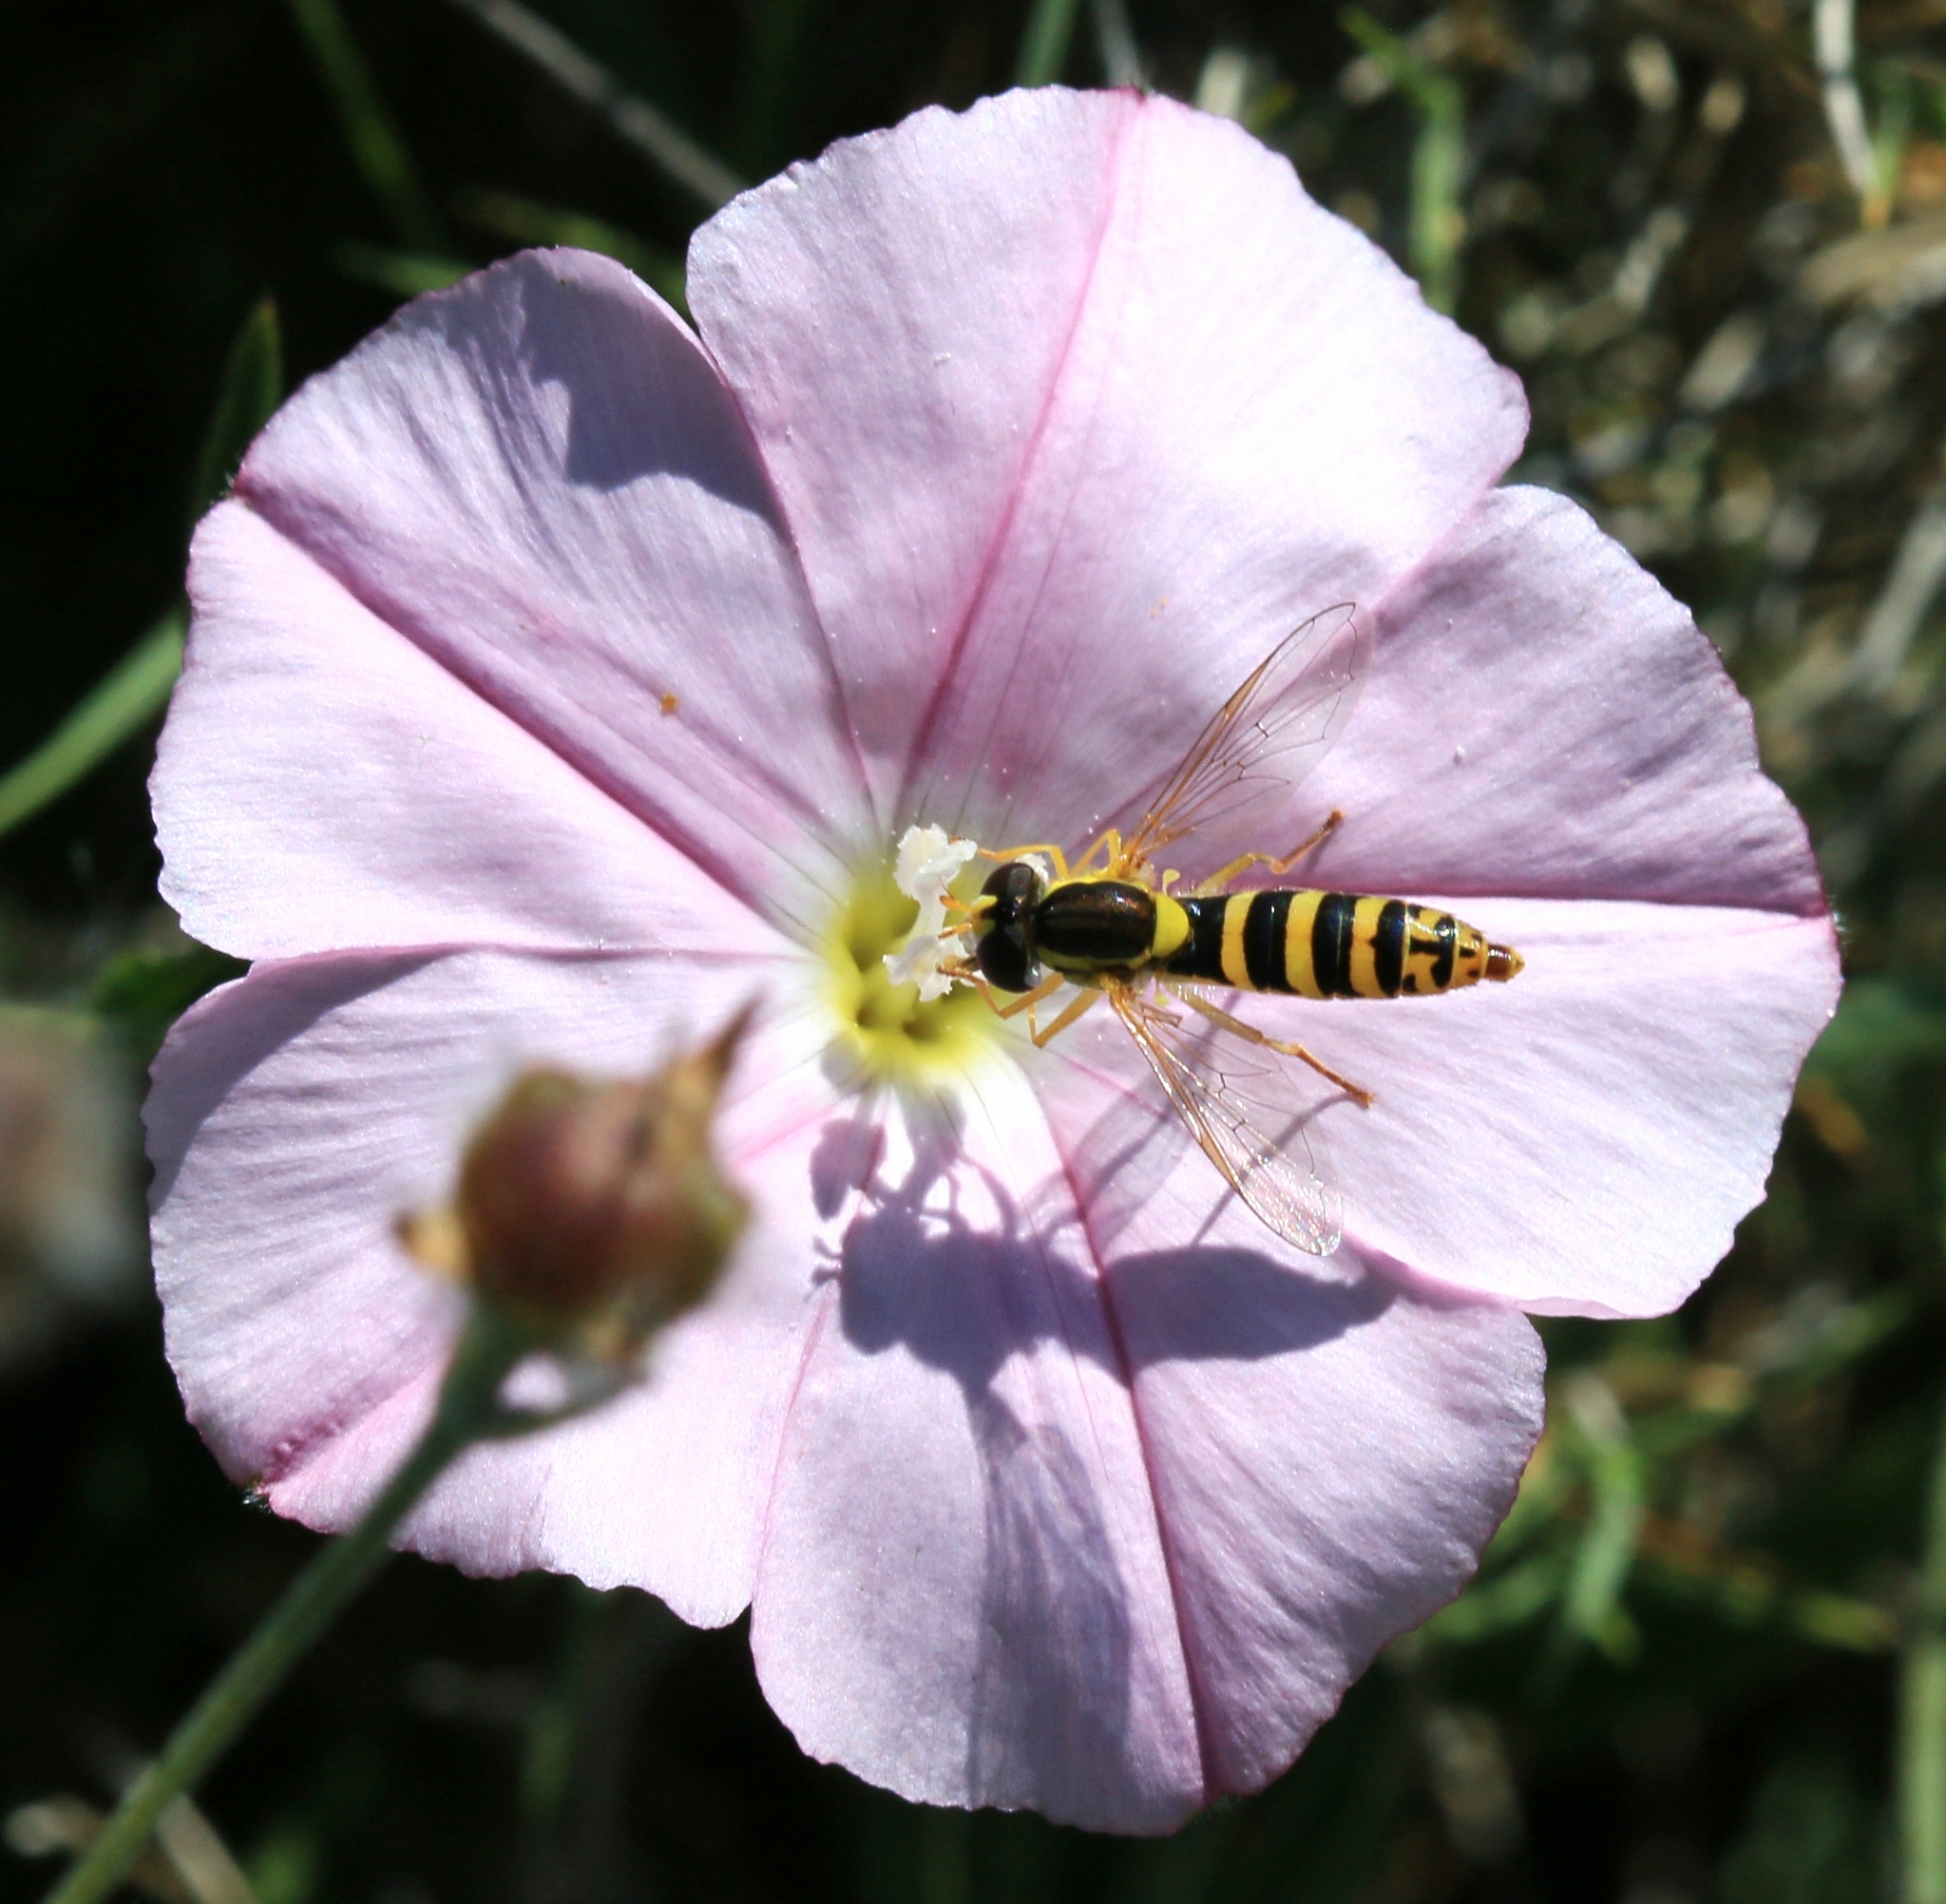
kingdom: Animalia
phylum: Arthropoda
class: Insecta
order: Diptera
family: Syrphidae
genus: Sphaerophoria
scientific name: Sphaerophoria
